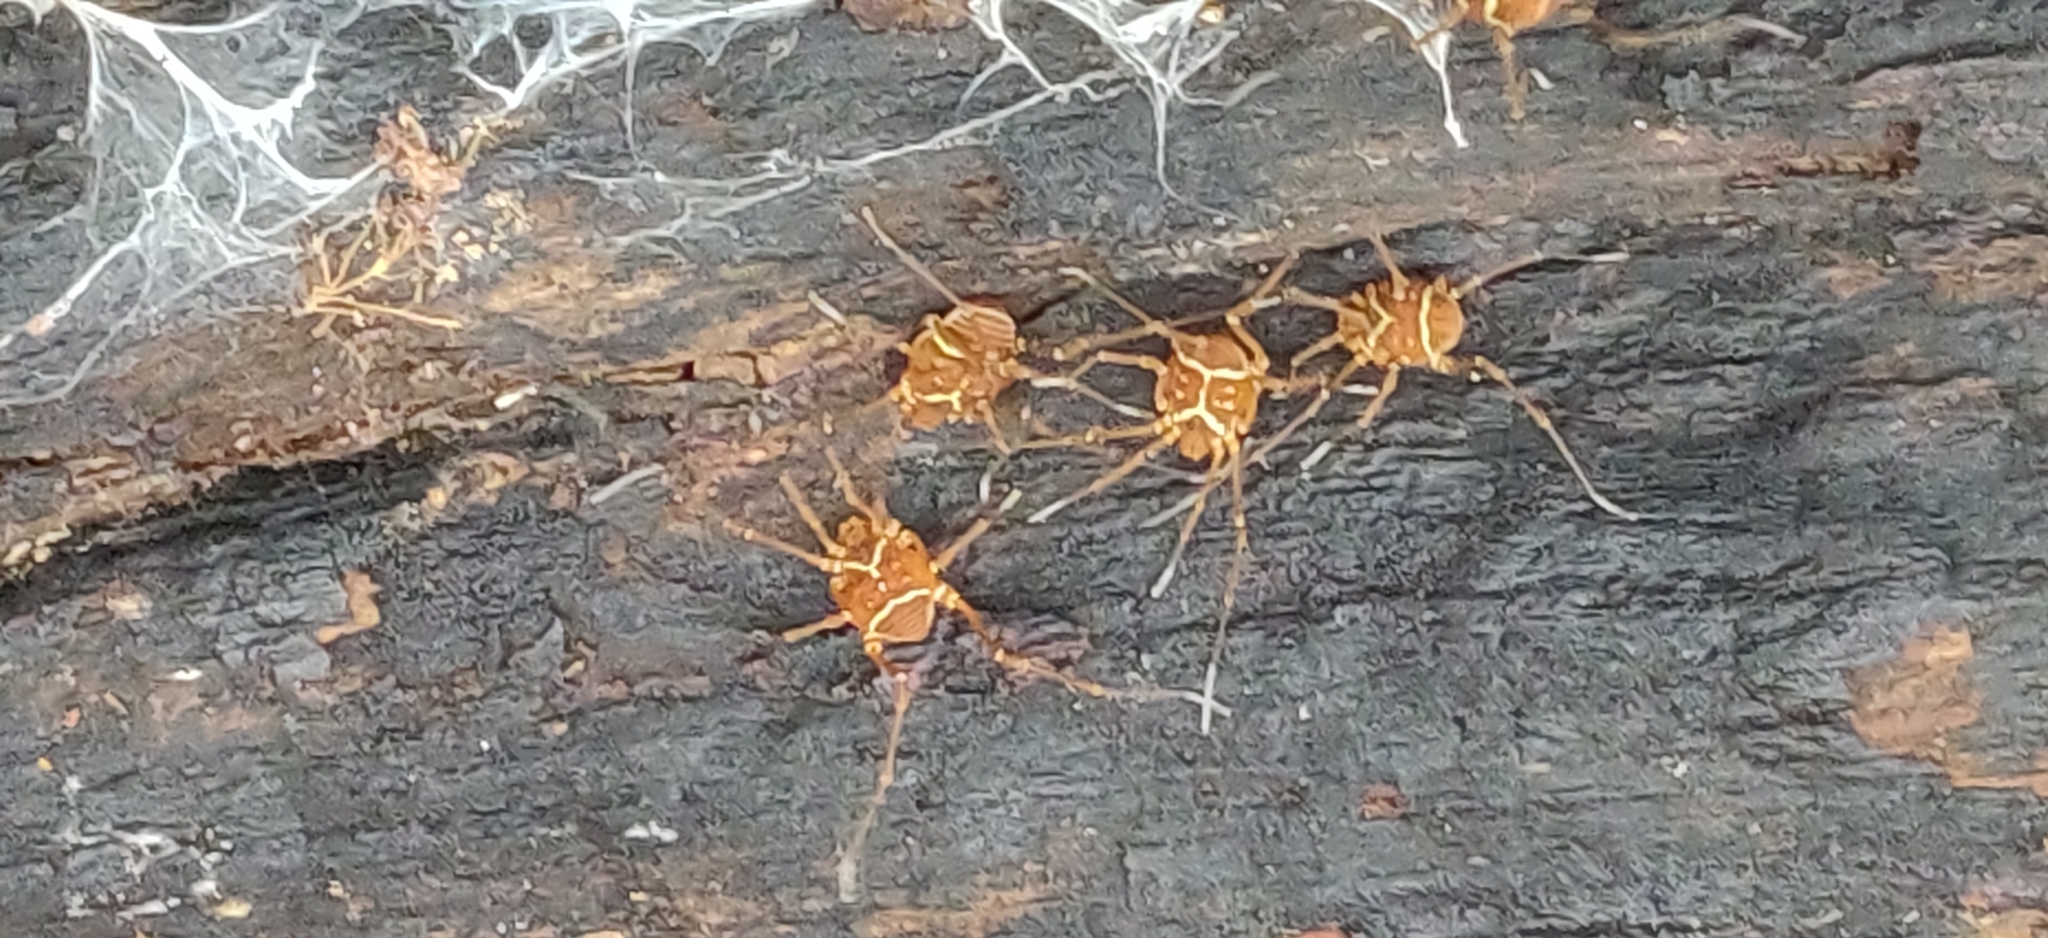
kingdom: Animalia
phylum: Arthropoda
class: Arachnida
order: Opiliones
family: Cosmetidae
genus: Libitioides
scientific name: Libitioides sayi
